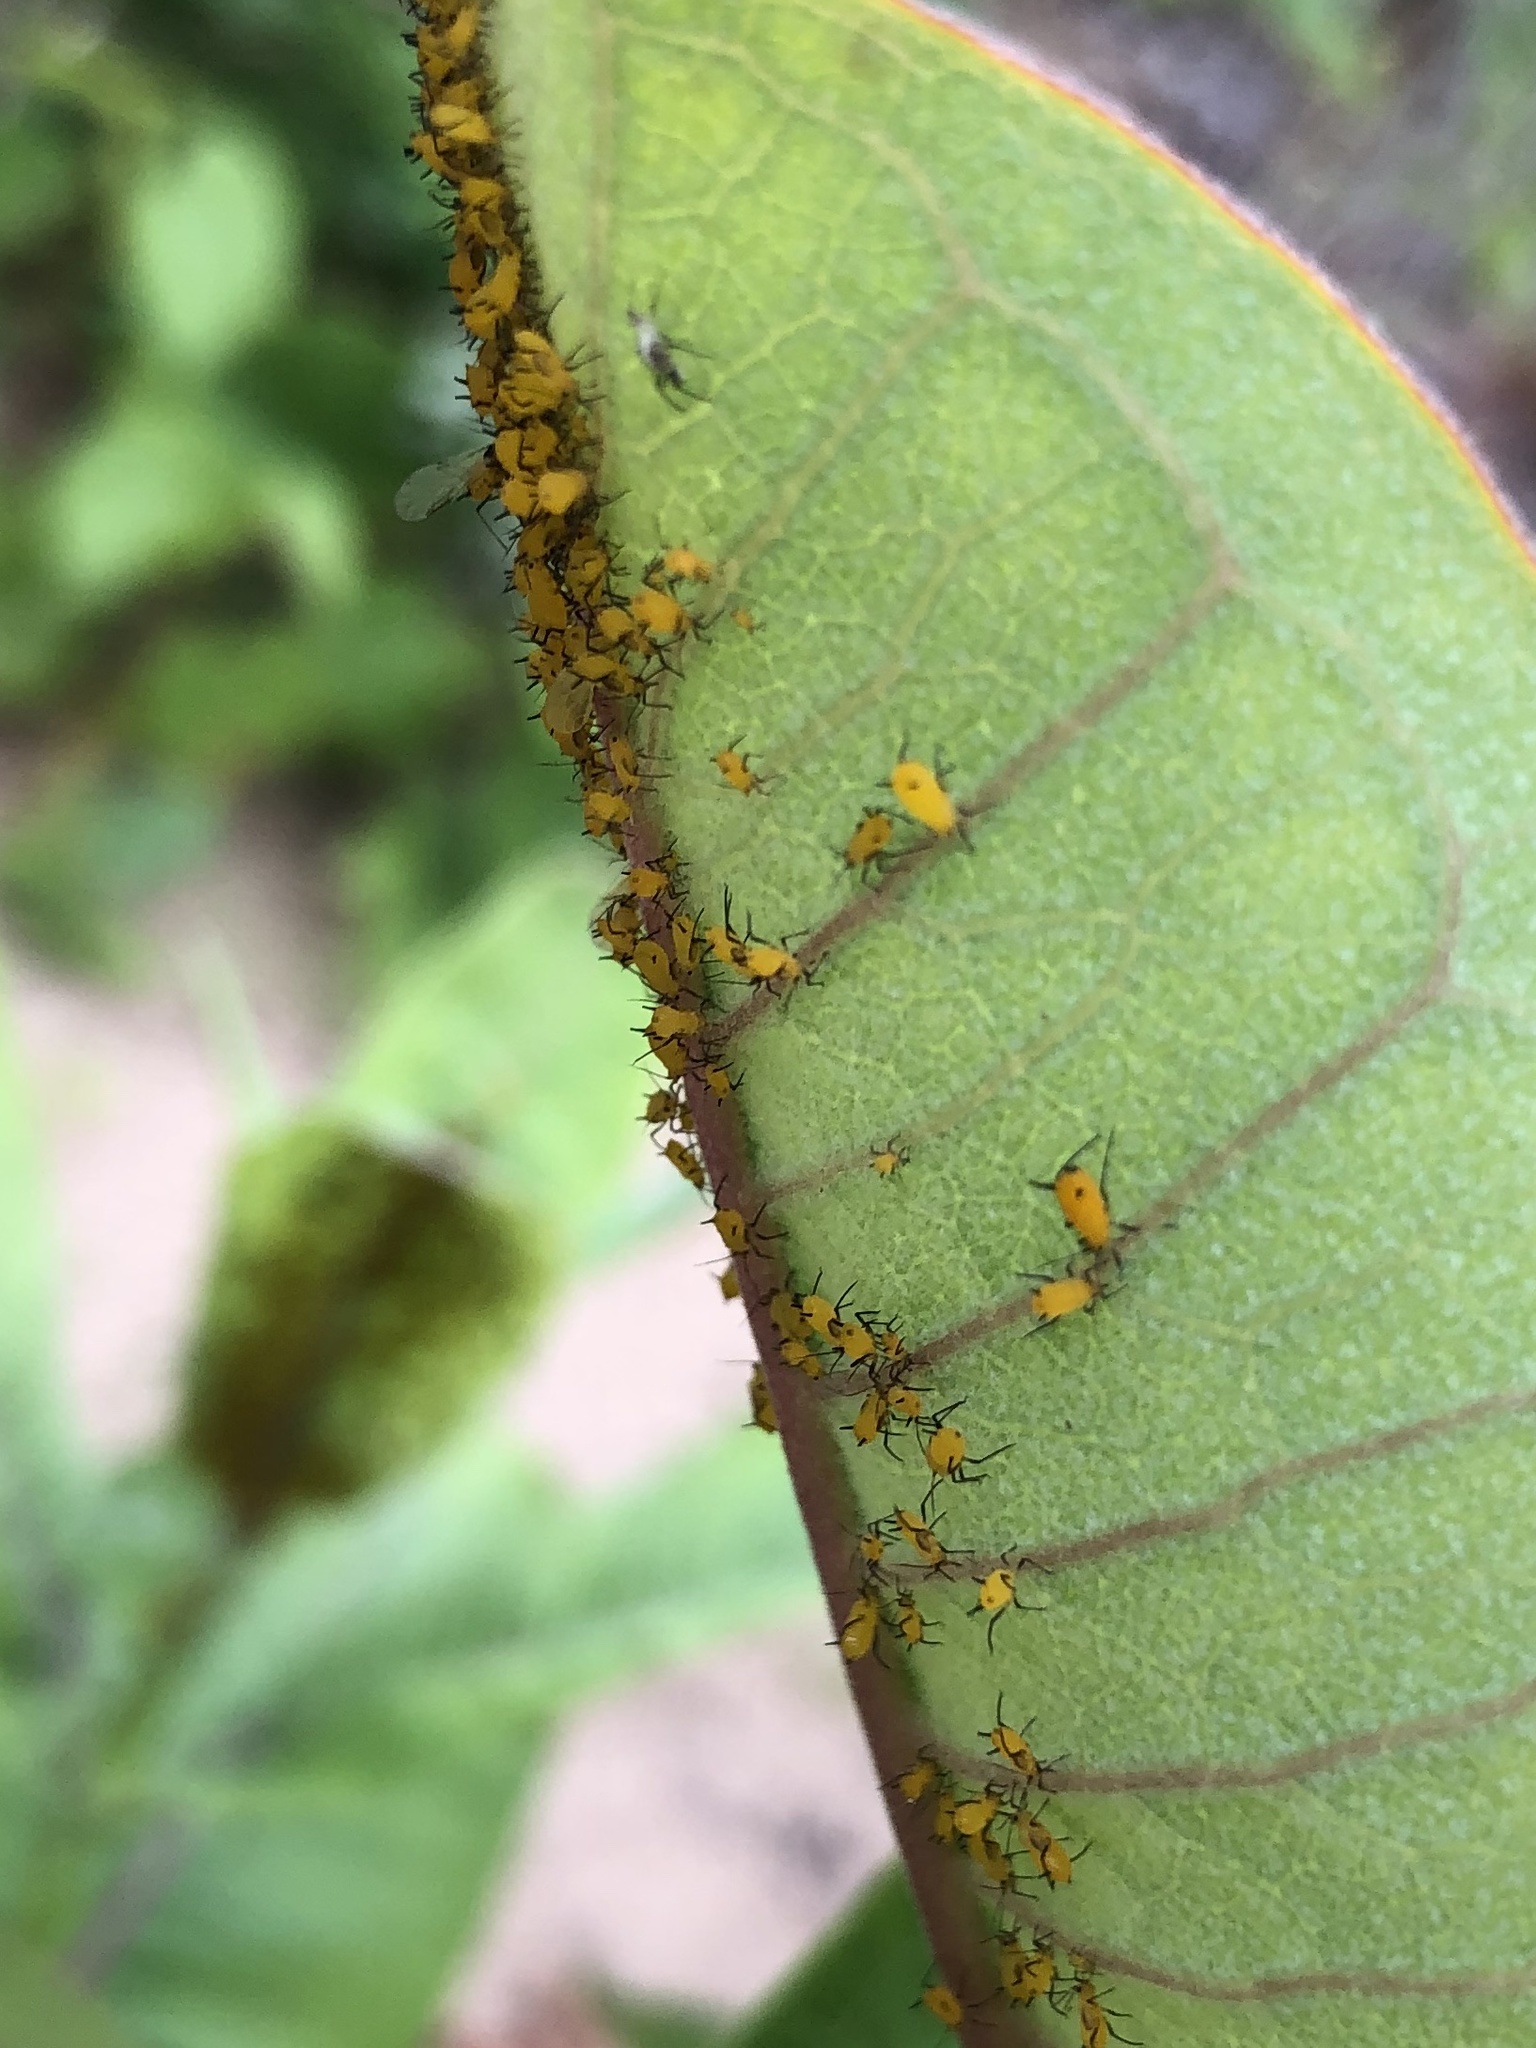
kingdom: Animalia
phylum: Arthropoda
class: Insecta
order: Hemiptera
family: Aphididae
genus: Aphis
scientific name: Aphis nerii
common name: Oleander aphid
